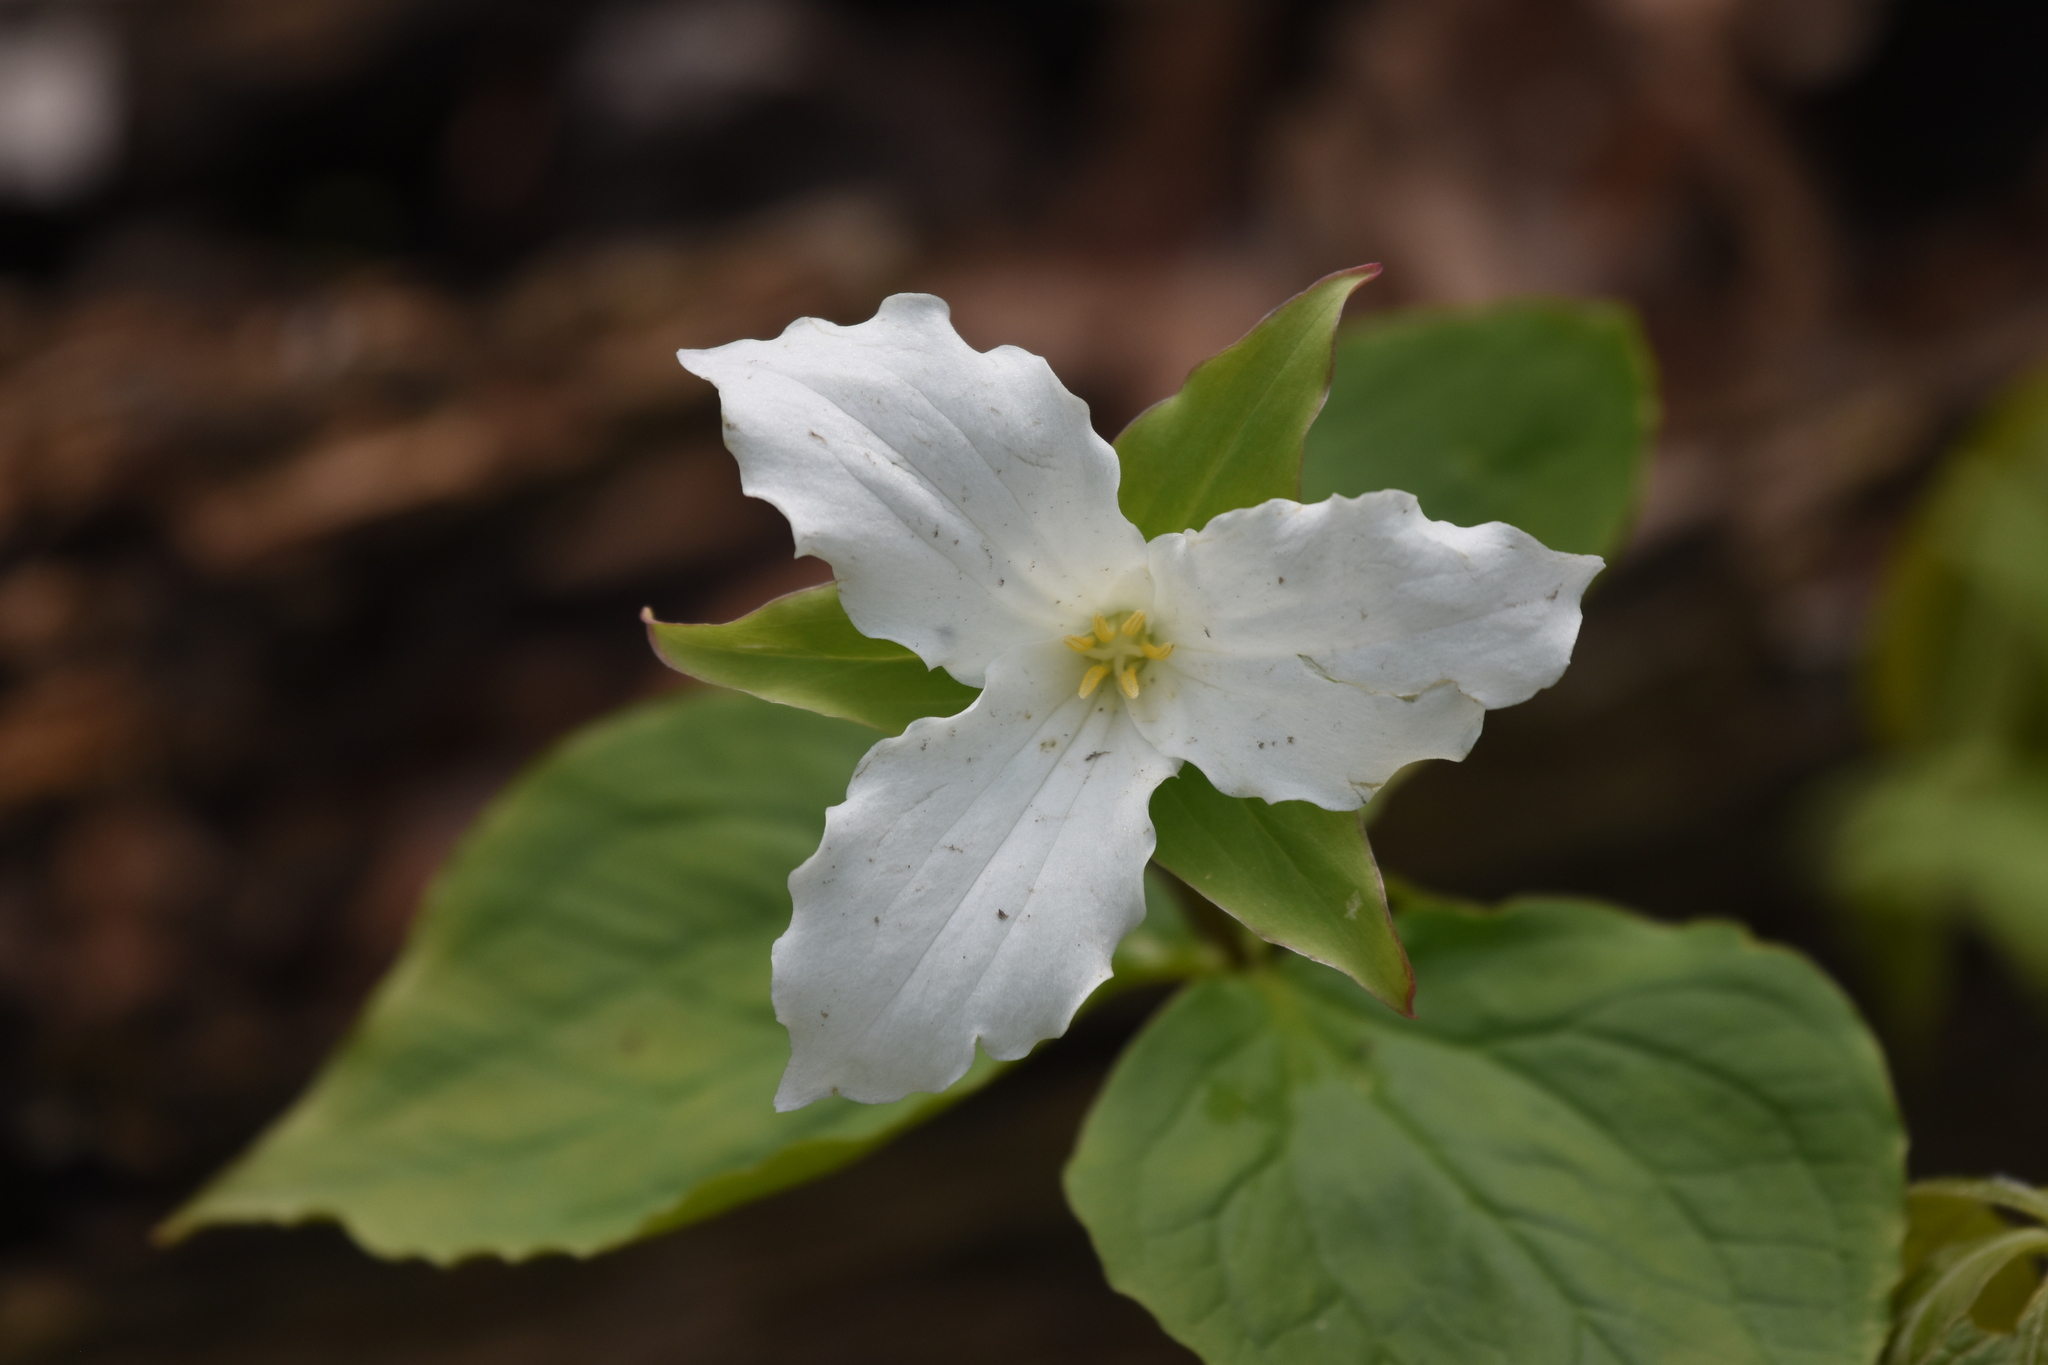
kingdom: Plantae
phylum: Tracheophyta
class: Liliopsida
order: Liliales
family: Melanthiaceae
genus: Trillium
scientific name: Trillium grandiflorum
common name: Great white trillium
